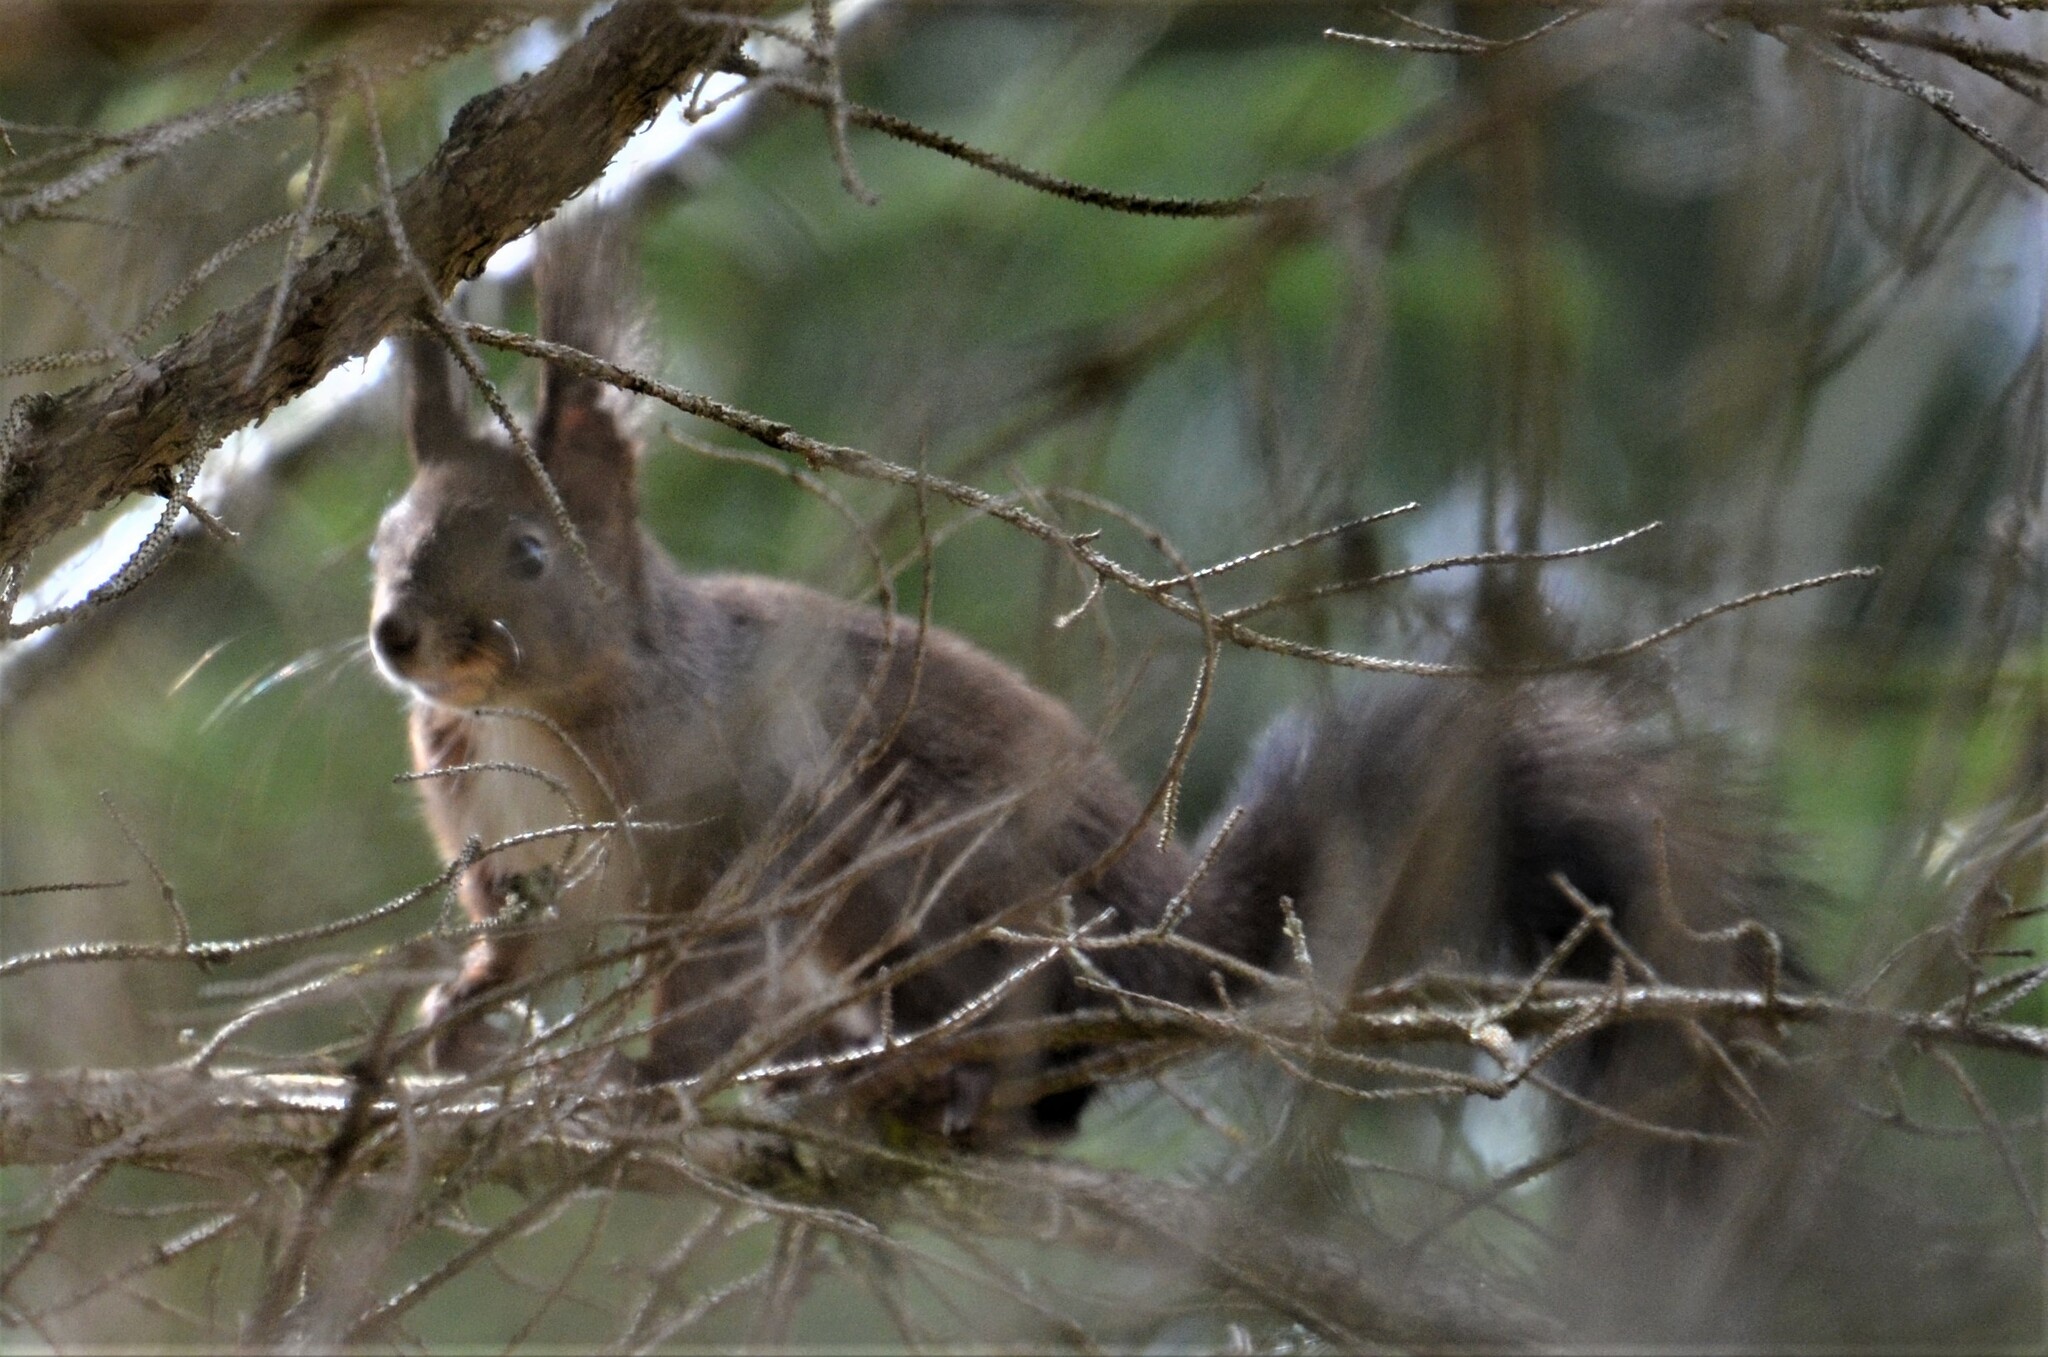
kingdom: Animalia
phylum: Chordata
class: Mammalia
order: Rodentia
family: Sciuridae
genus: Sciurus
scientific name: Sciurus vulgaris
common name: Eurasian red squirrel
